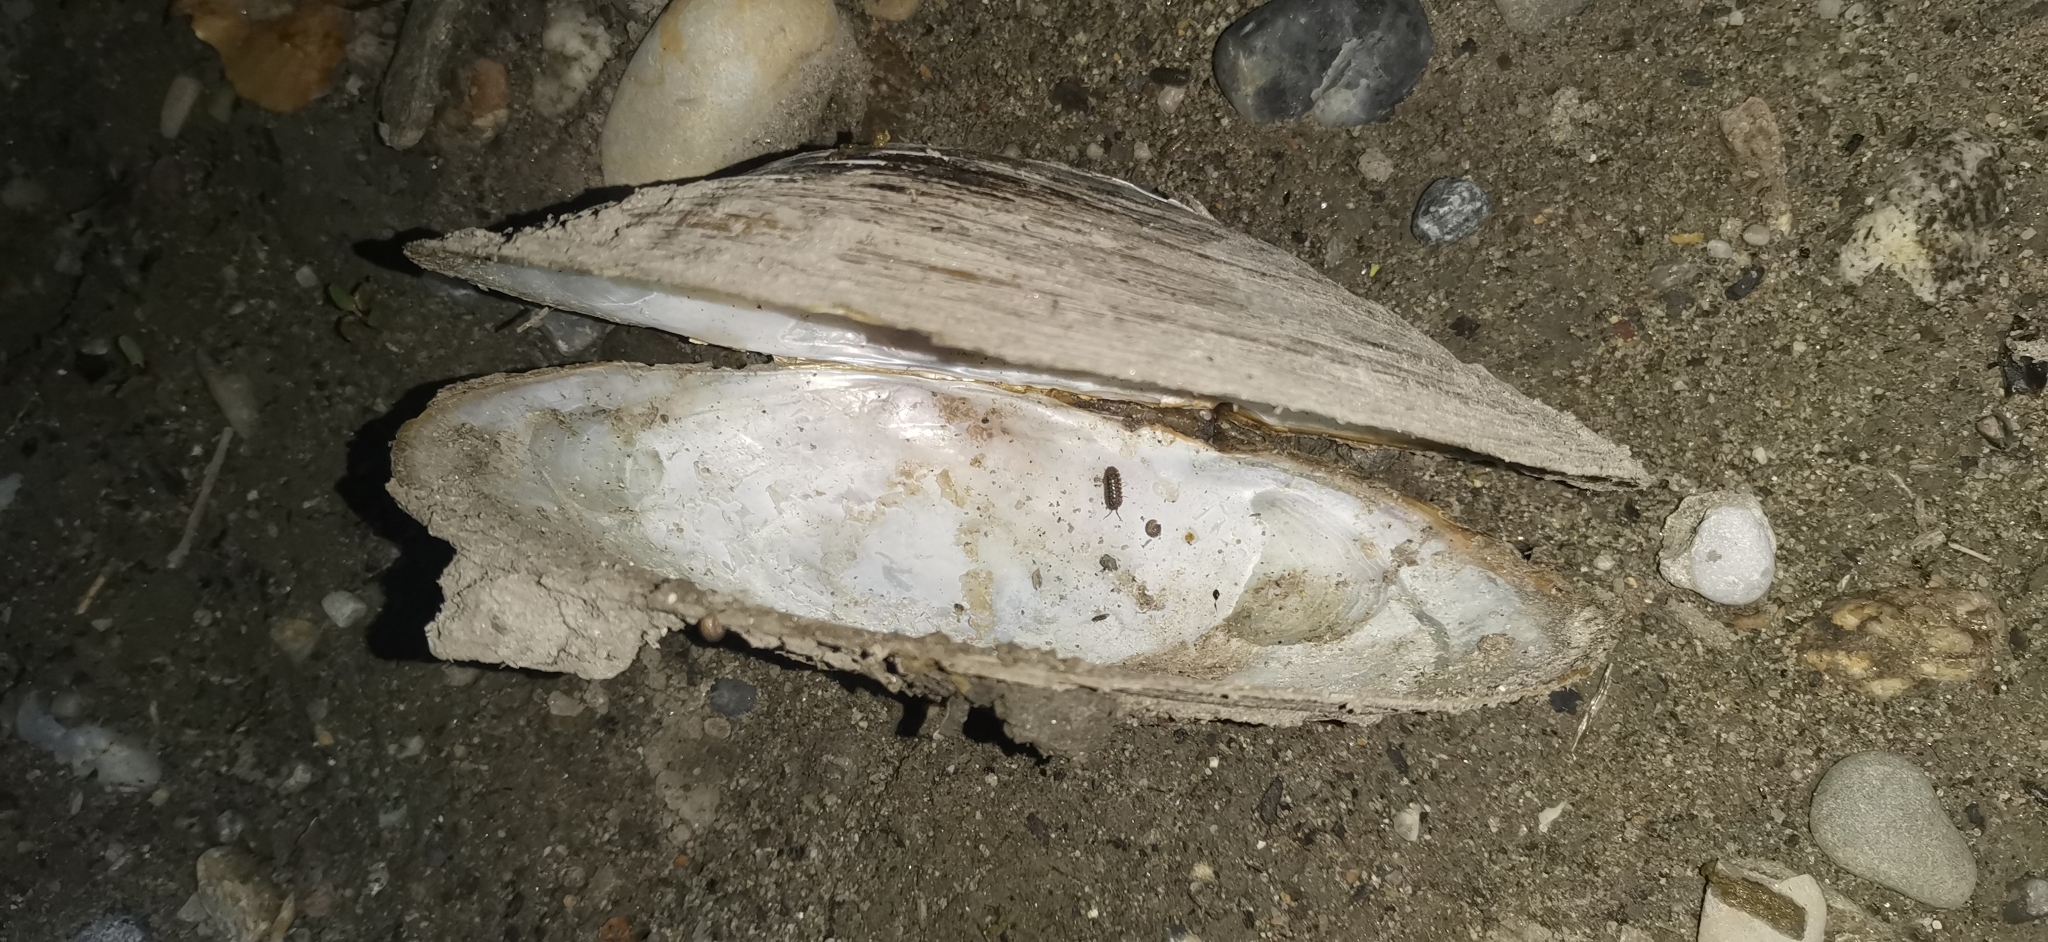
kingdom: Animalia
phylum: Mollusca
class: Bivalvia
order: Unionida
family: Unionidae
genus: Anodonta
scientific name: Anodonta cygnea
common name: Swan mussel
